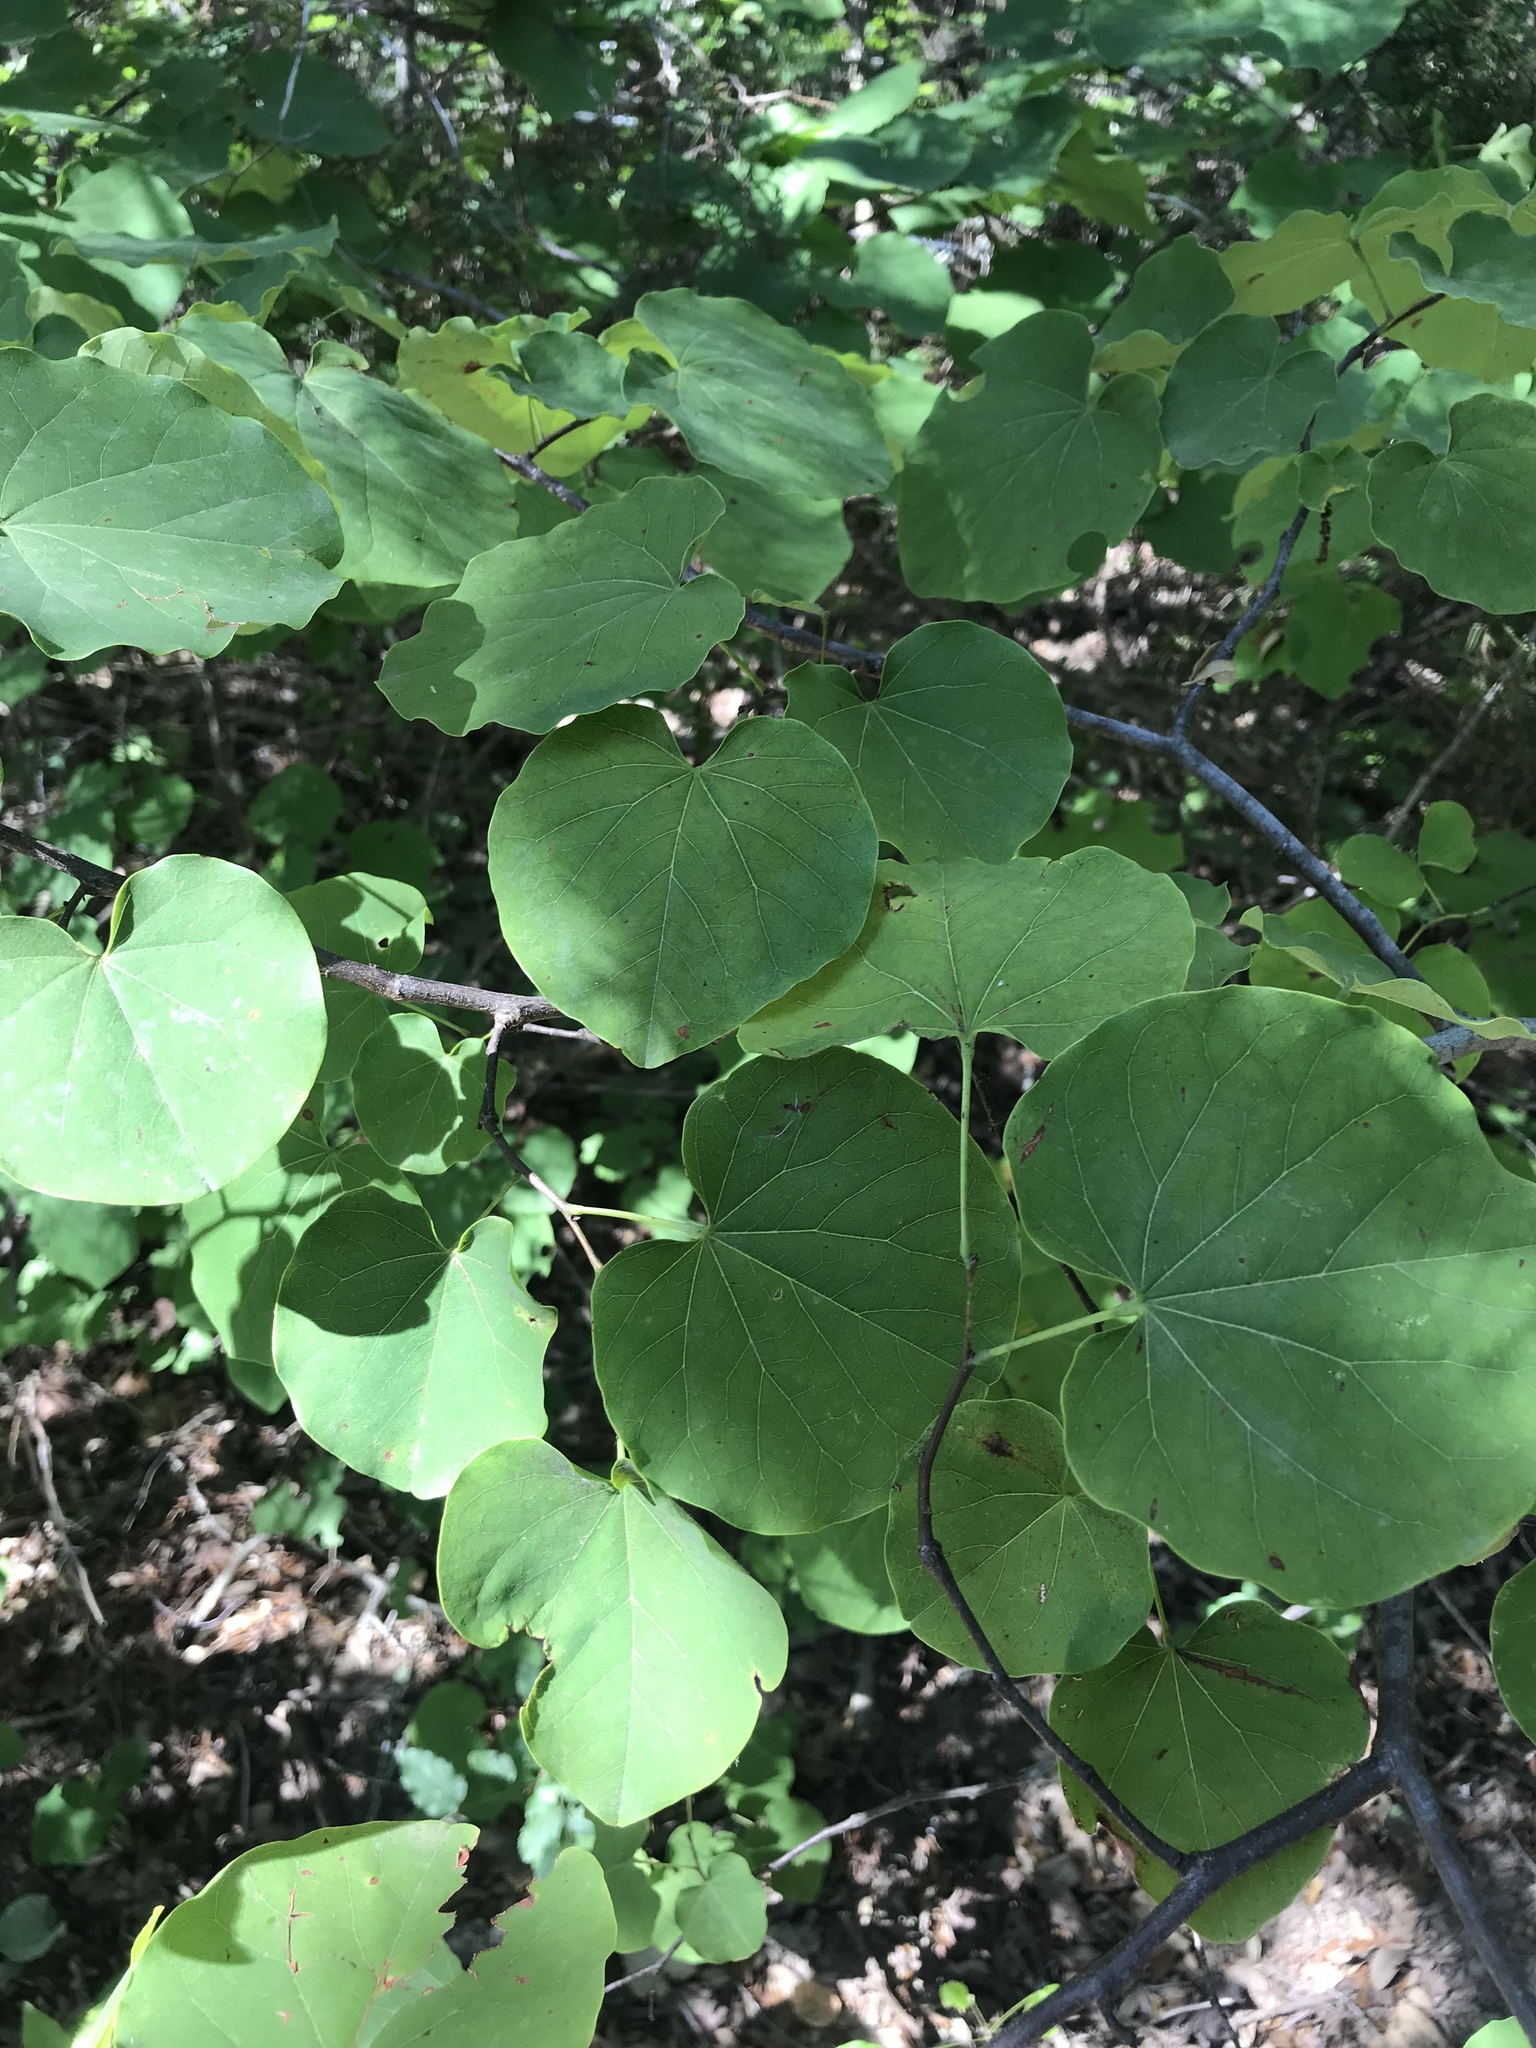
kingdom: Plantae
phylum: Tracheophyta
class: Magnoliopsida
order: Fabales
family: Fabaceae
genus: Cercis
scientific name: Cercis canadensis
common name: Eastern redbud
